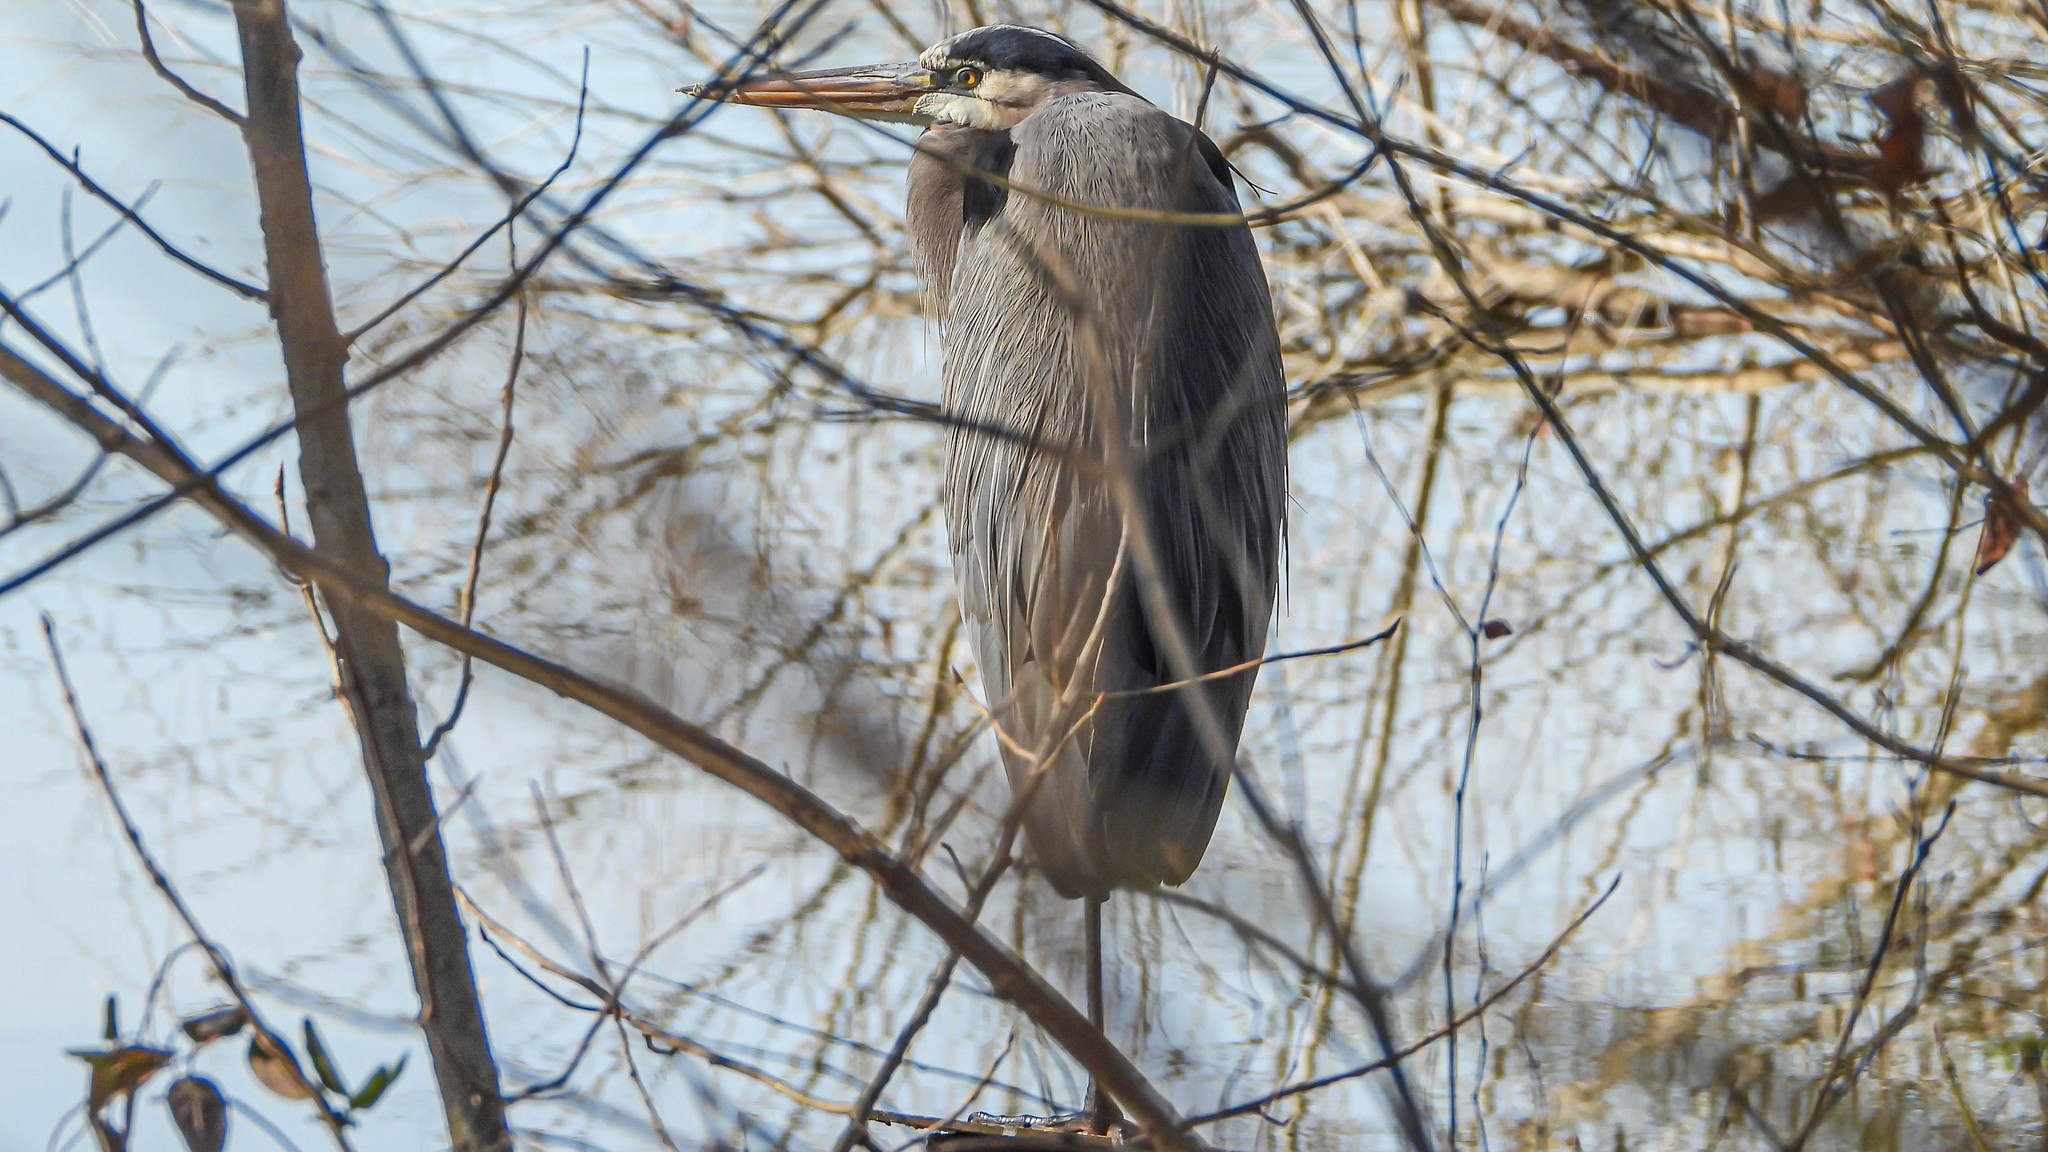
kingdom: Animalia
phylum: Chordata
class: Aves
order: Pelecaniformes
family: Ardeidae
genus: Ardea
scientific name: Ardea herodias
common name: Great blue heron
